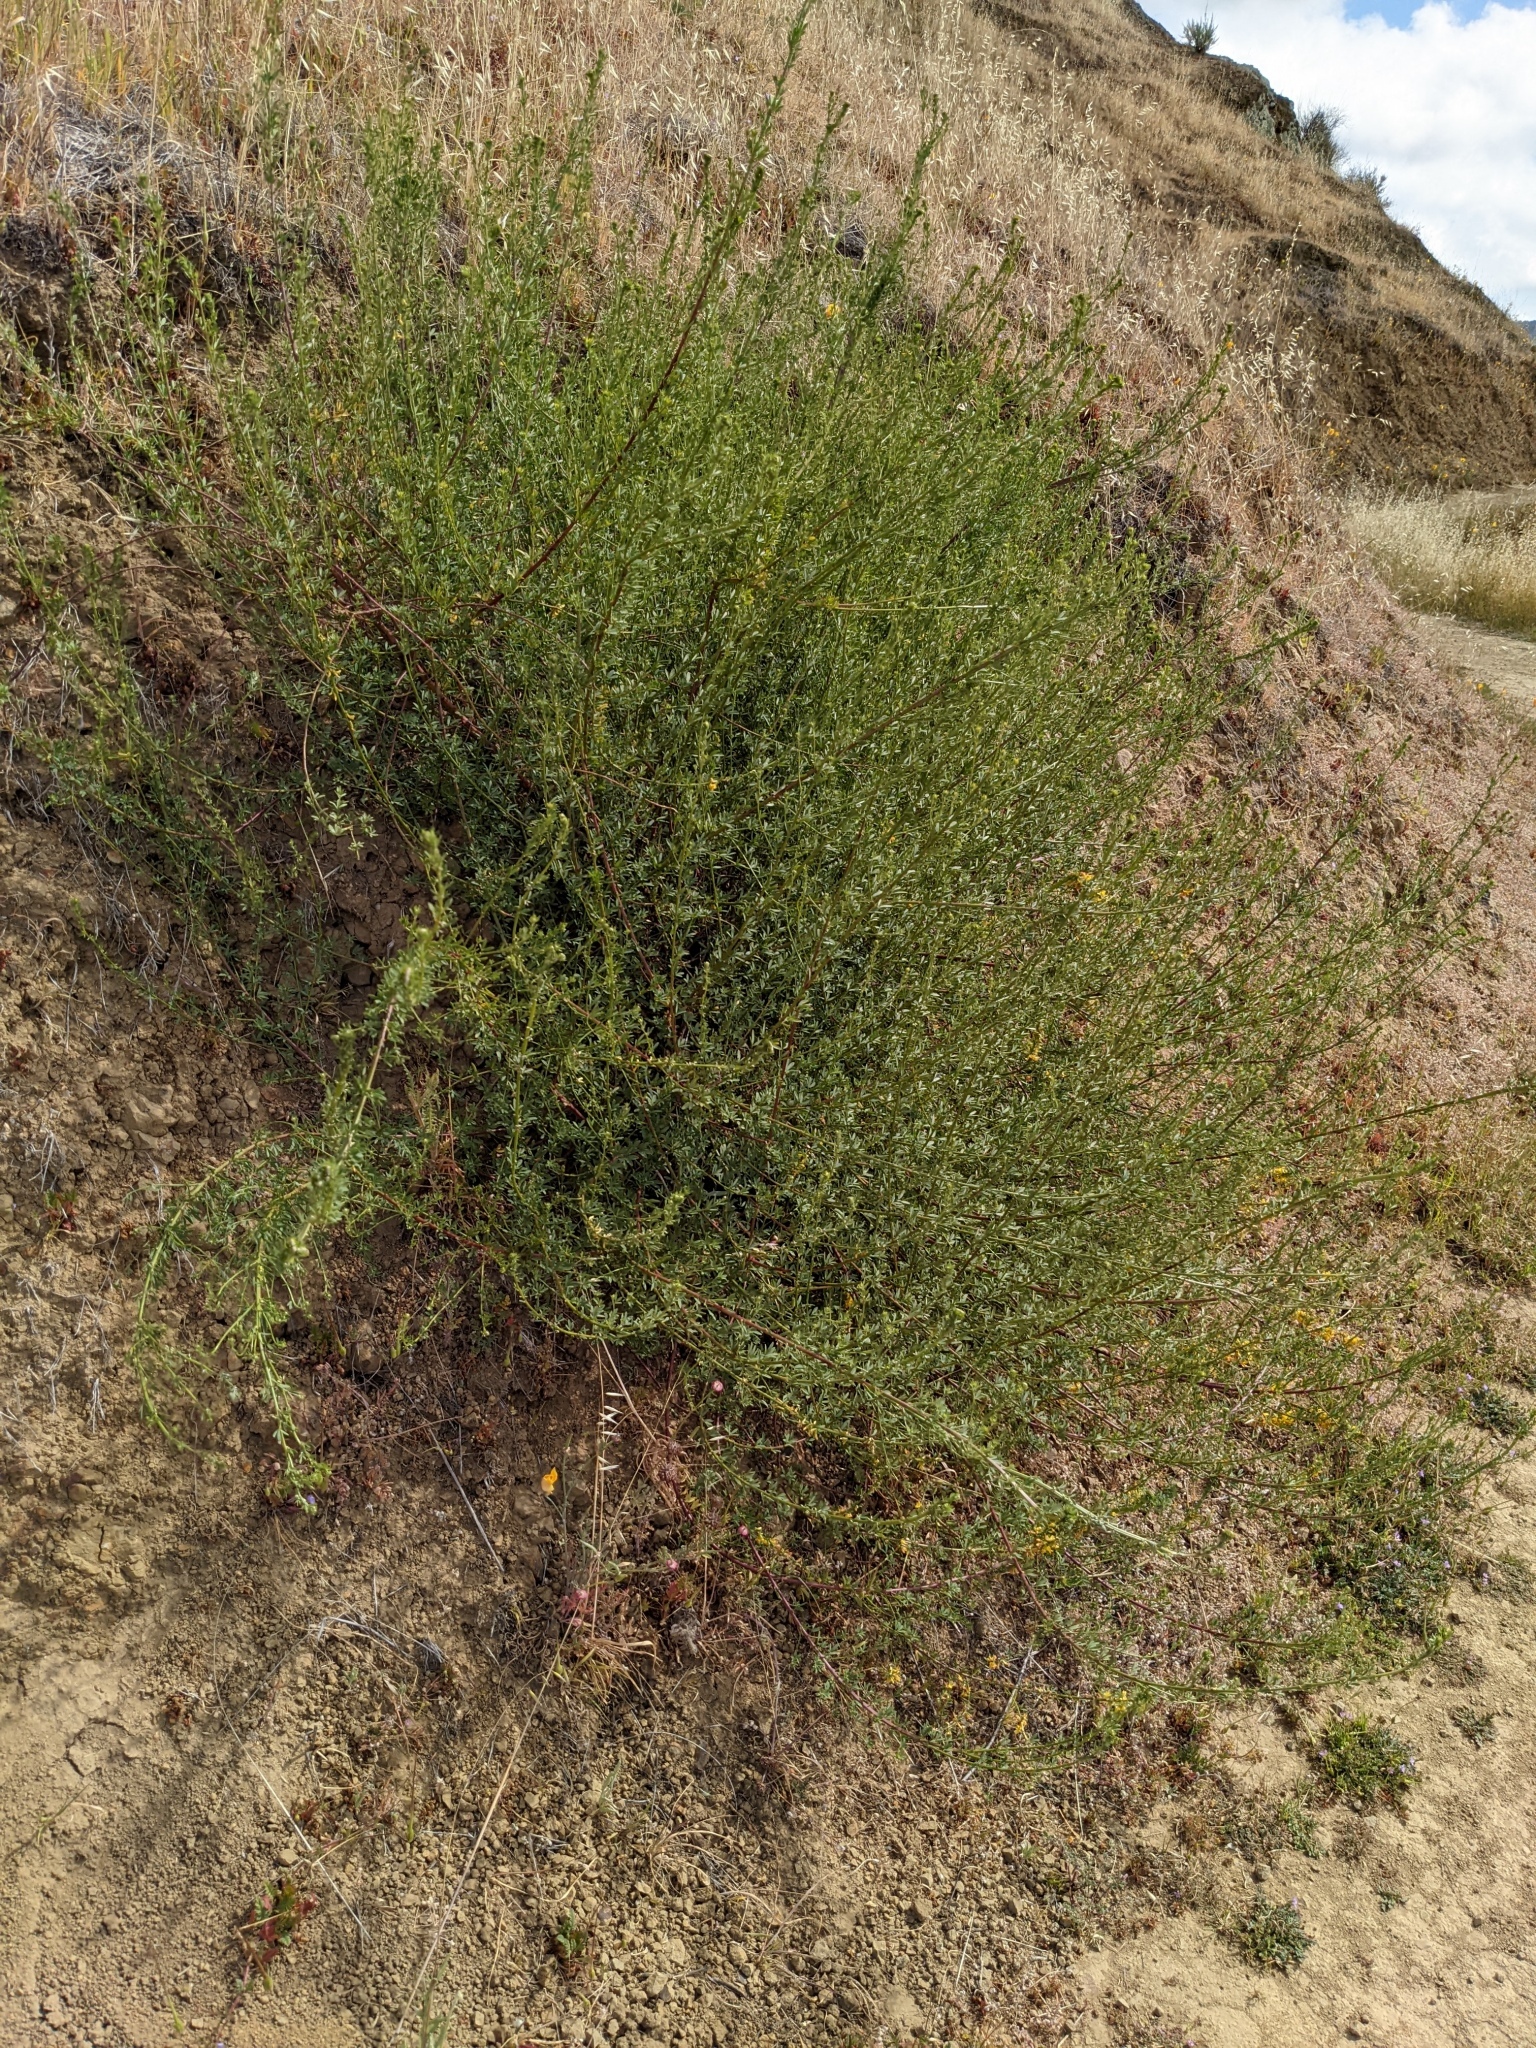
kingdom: Plantae
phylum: Tracheophyta
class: Magnoliopsida
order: Fabales
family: Fabaceae
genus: Acmispon
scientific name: Acmispon glaber
